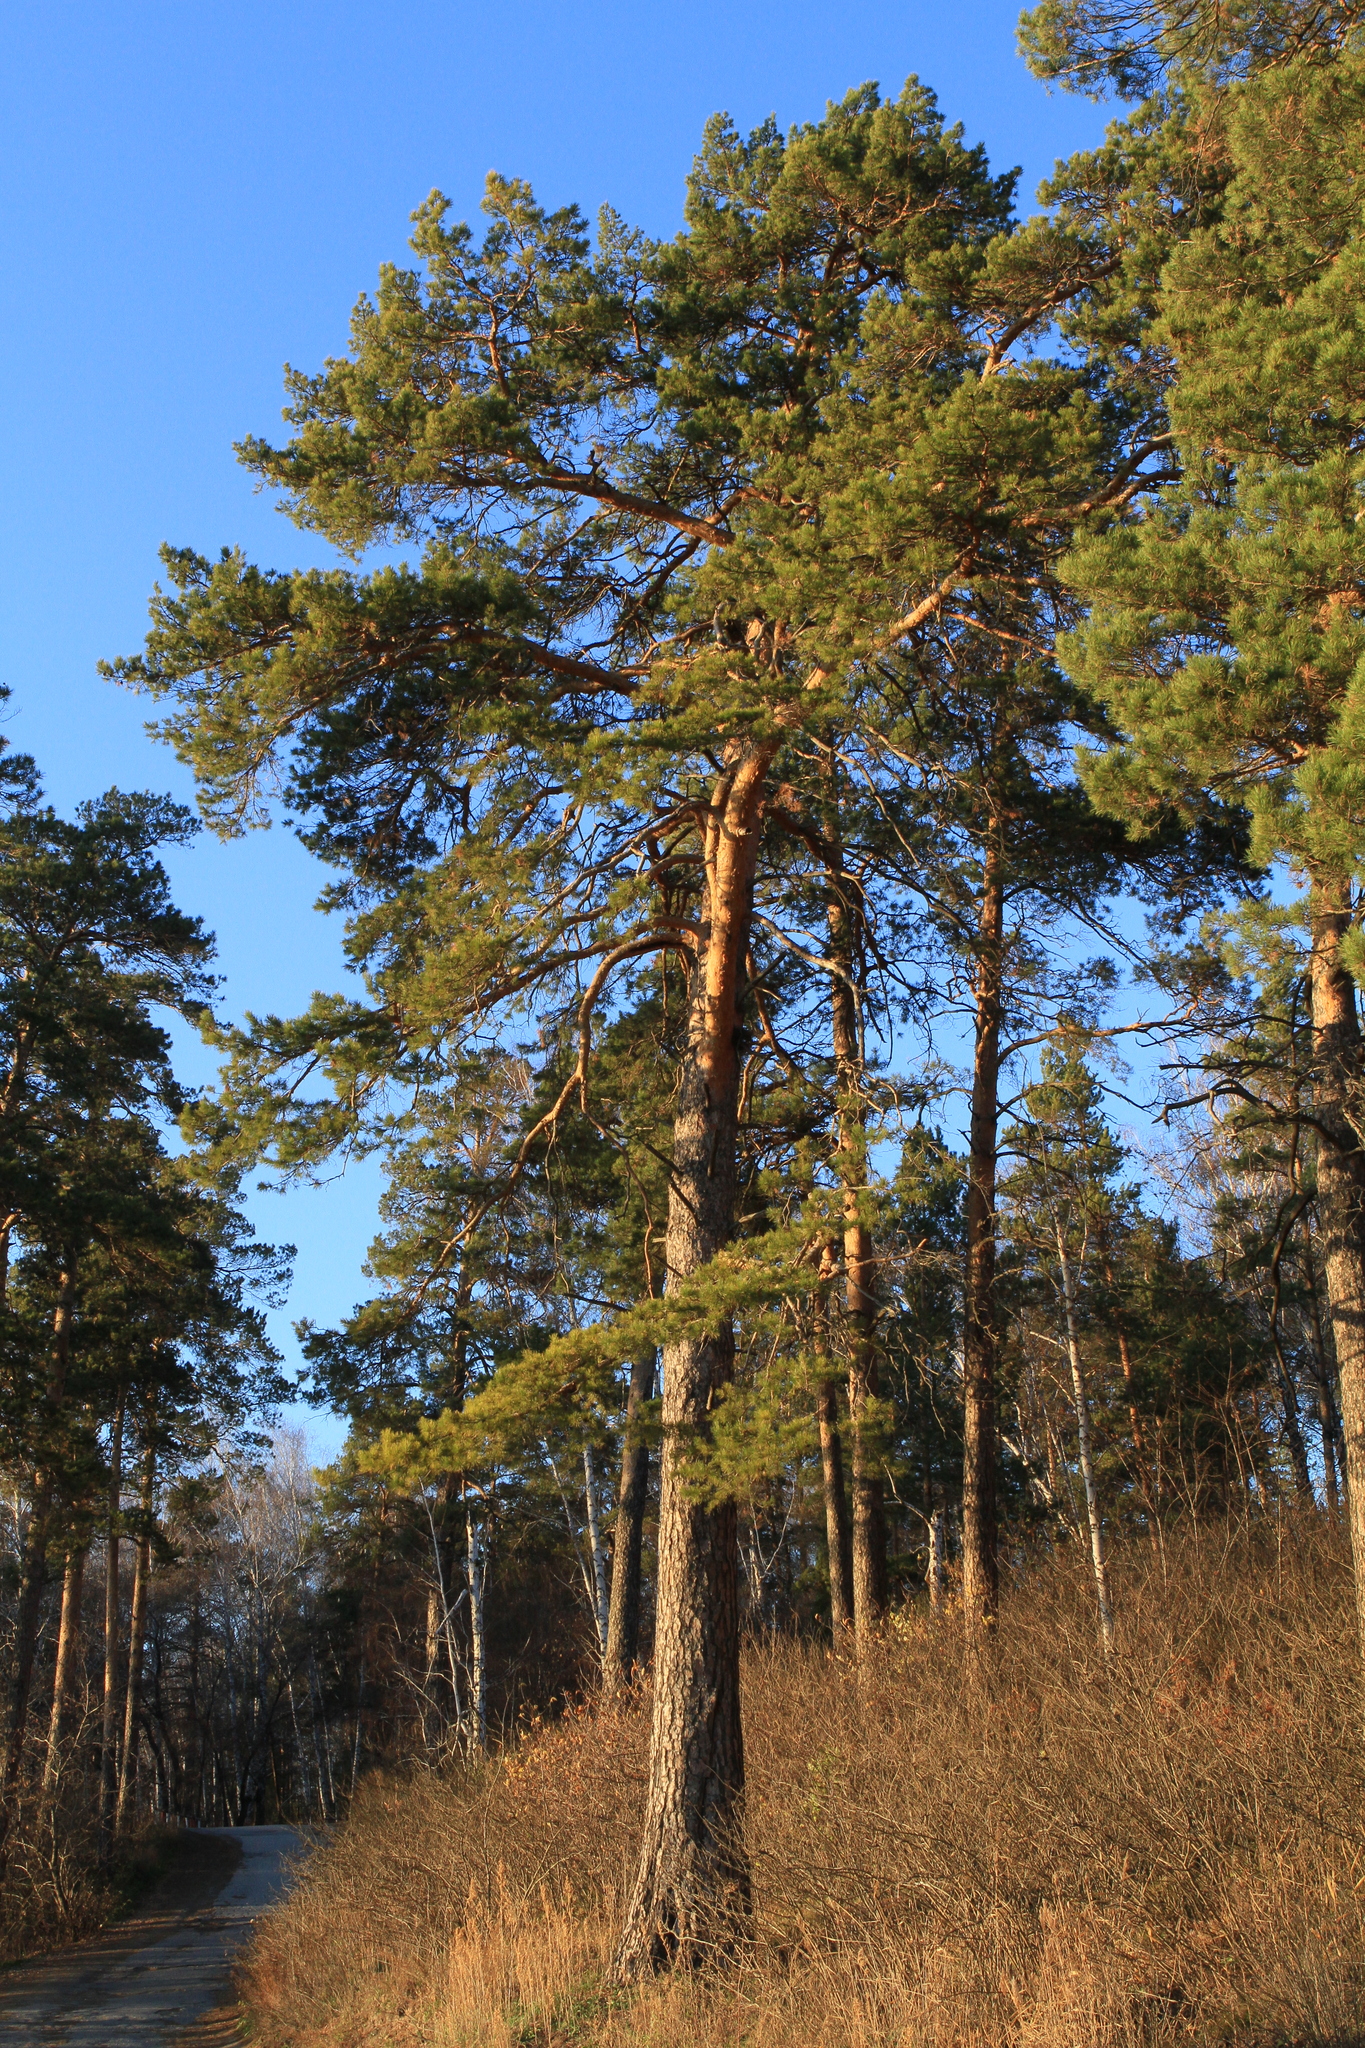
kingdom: Plantae
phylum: Tracheophyta
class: Pinopsida
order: Pinales
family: Pinaceae
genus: Pinus
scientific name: Pinus sylvestris
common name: Scots pine
